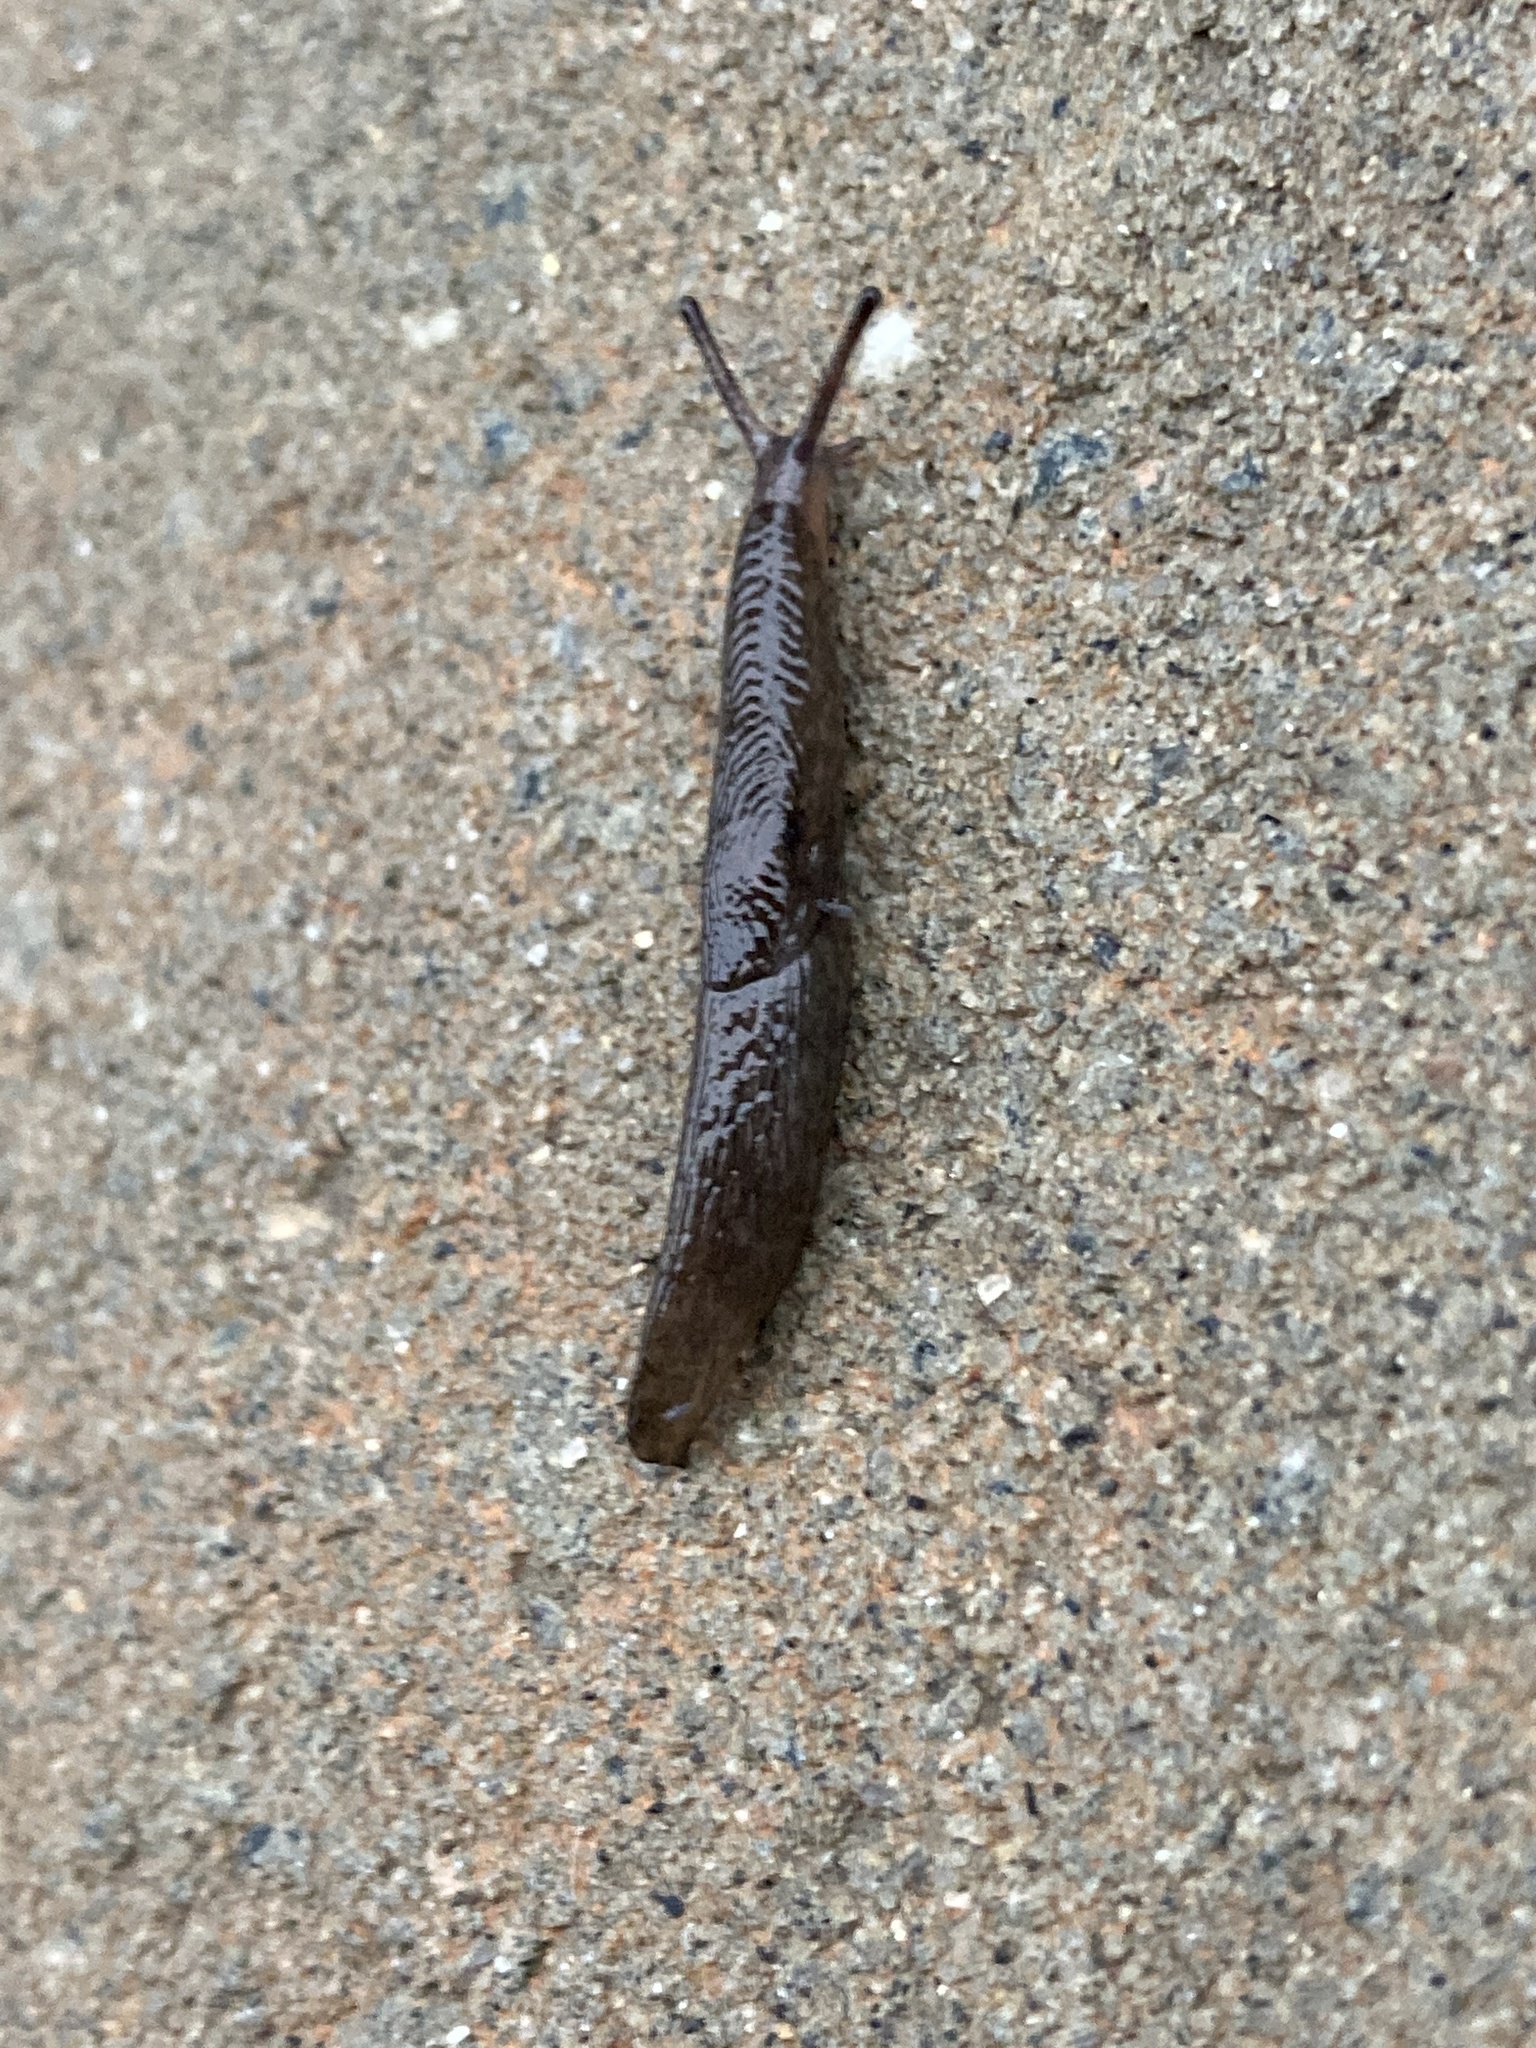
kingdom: Animalia
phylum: Mollusca
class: Gastropoda
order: Stylommatophora
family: Agriolimacidae
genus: Deroceras
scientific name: Deroceras laeve
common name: Marsh slug
